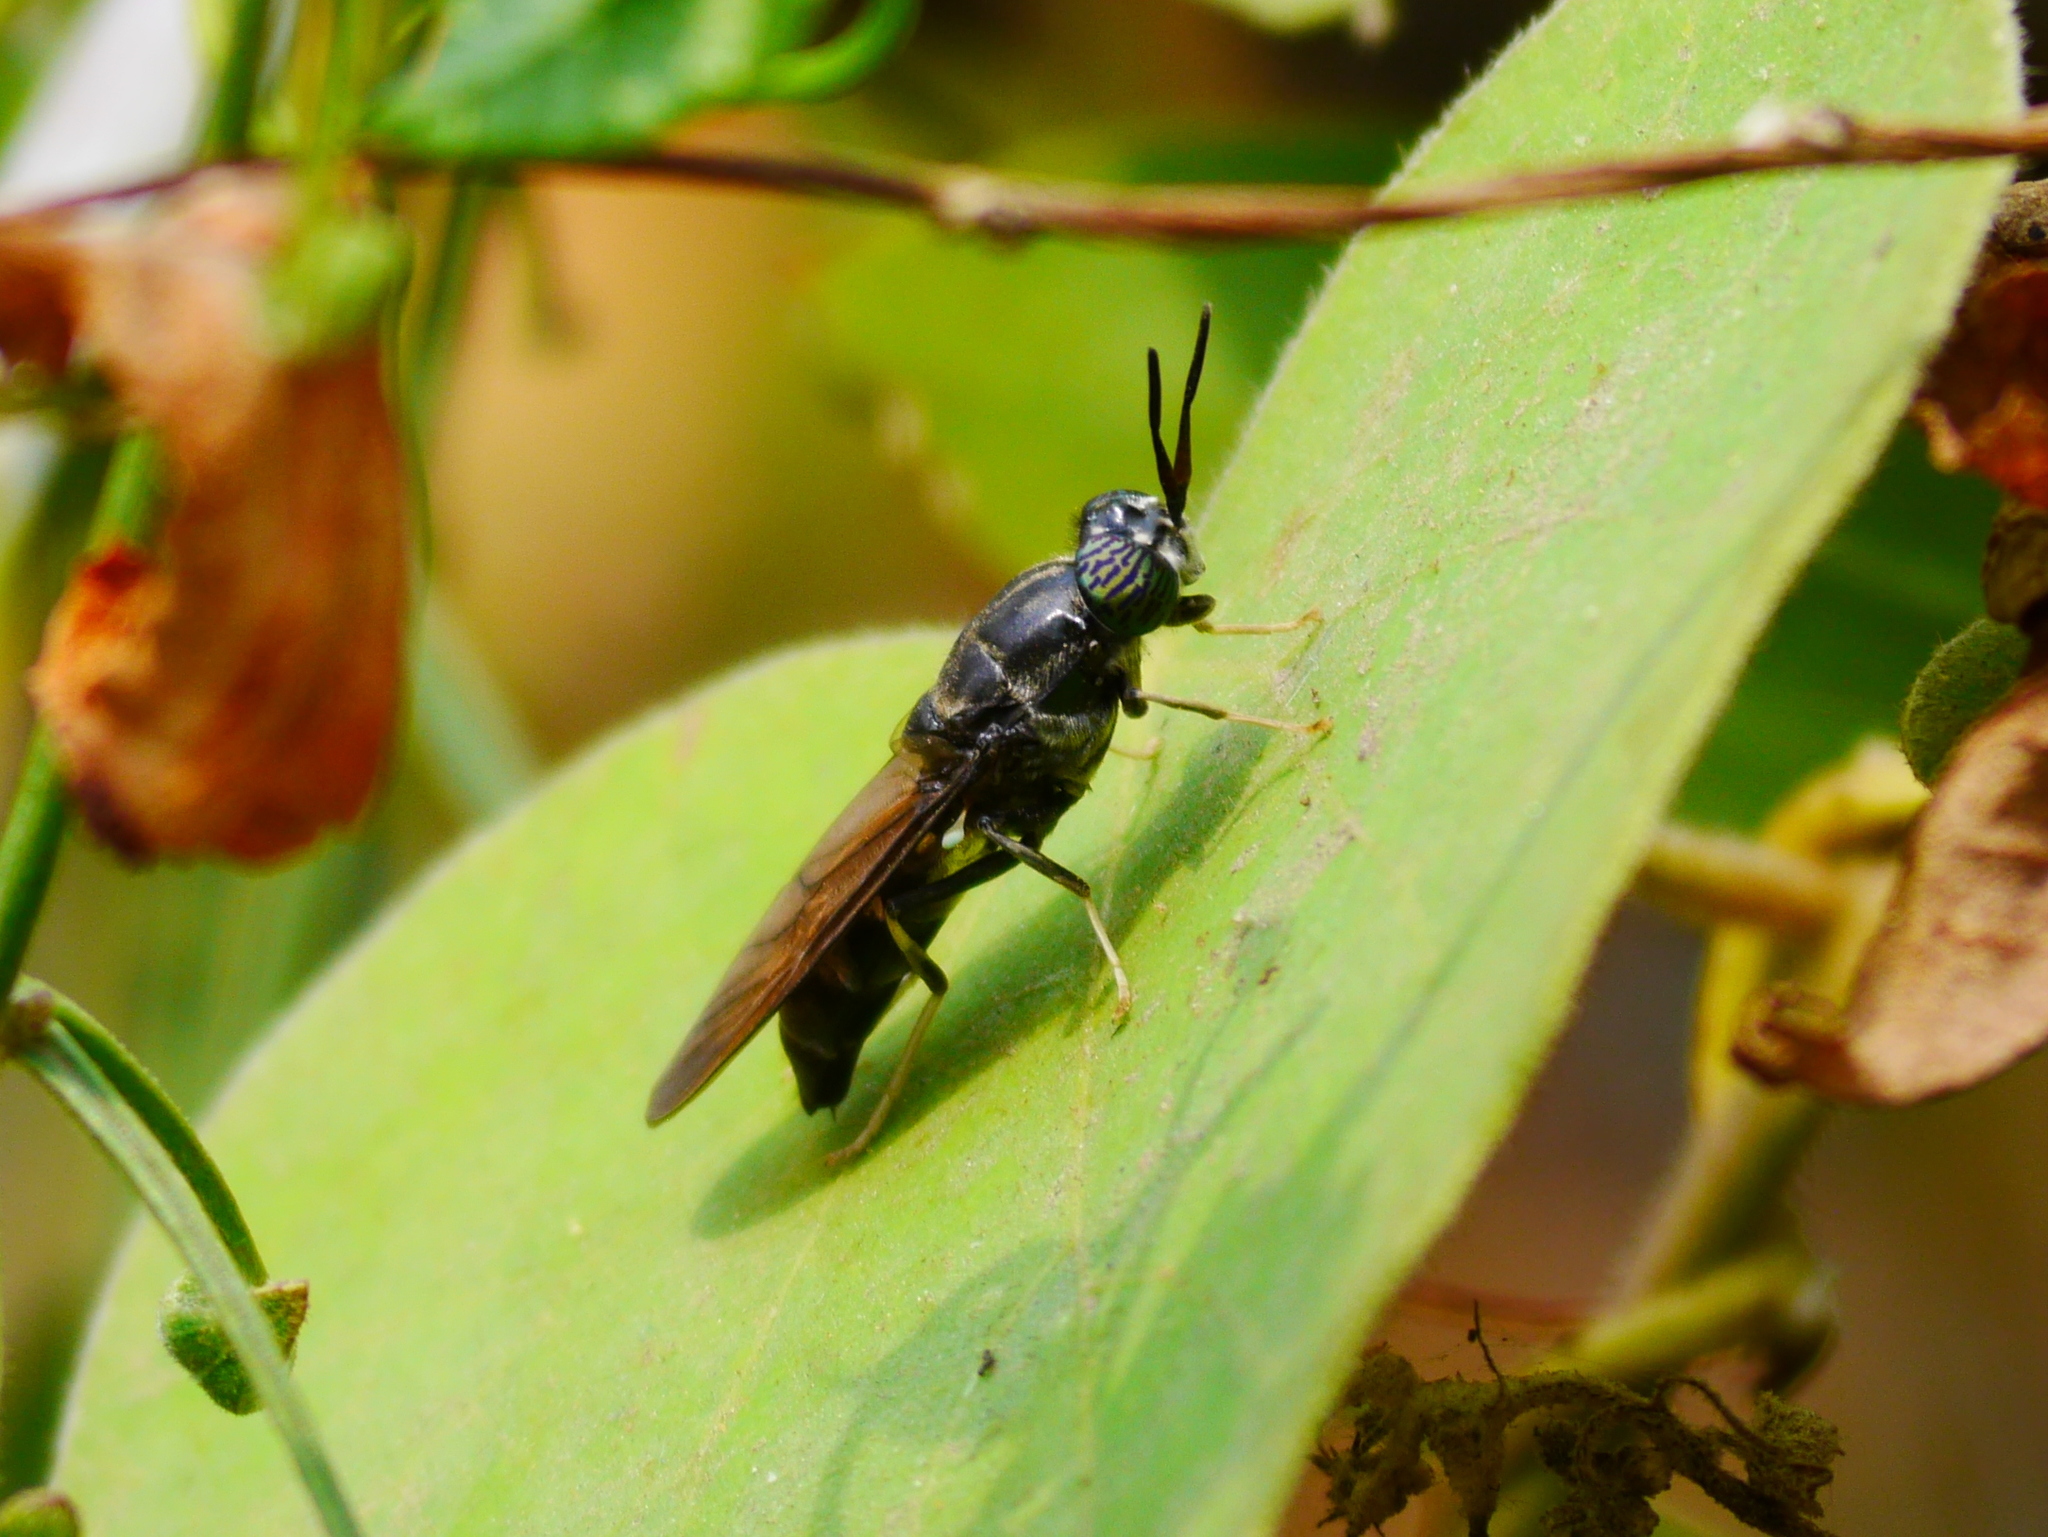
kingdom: Animalia
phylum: Arthropoda
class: Insecta
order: Diptera
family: Stratiomyidae
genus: Hermetia
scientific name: Hermetia illucens
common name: Black soldier fly
